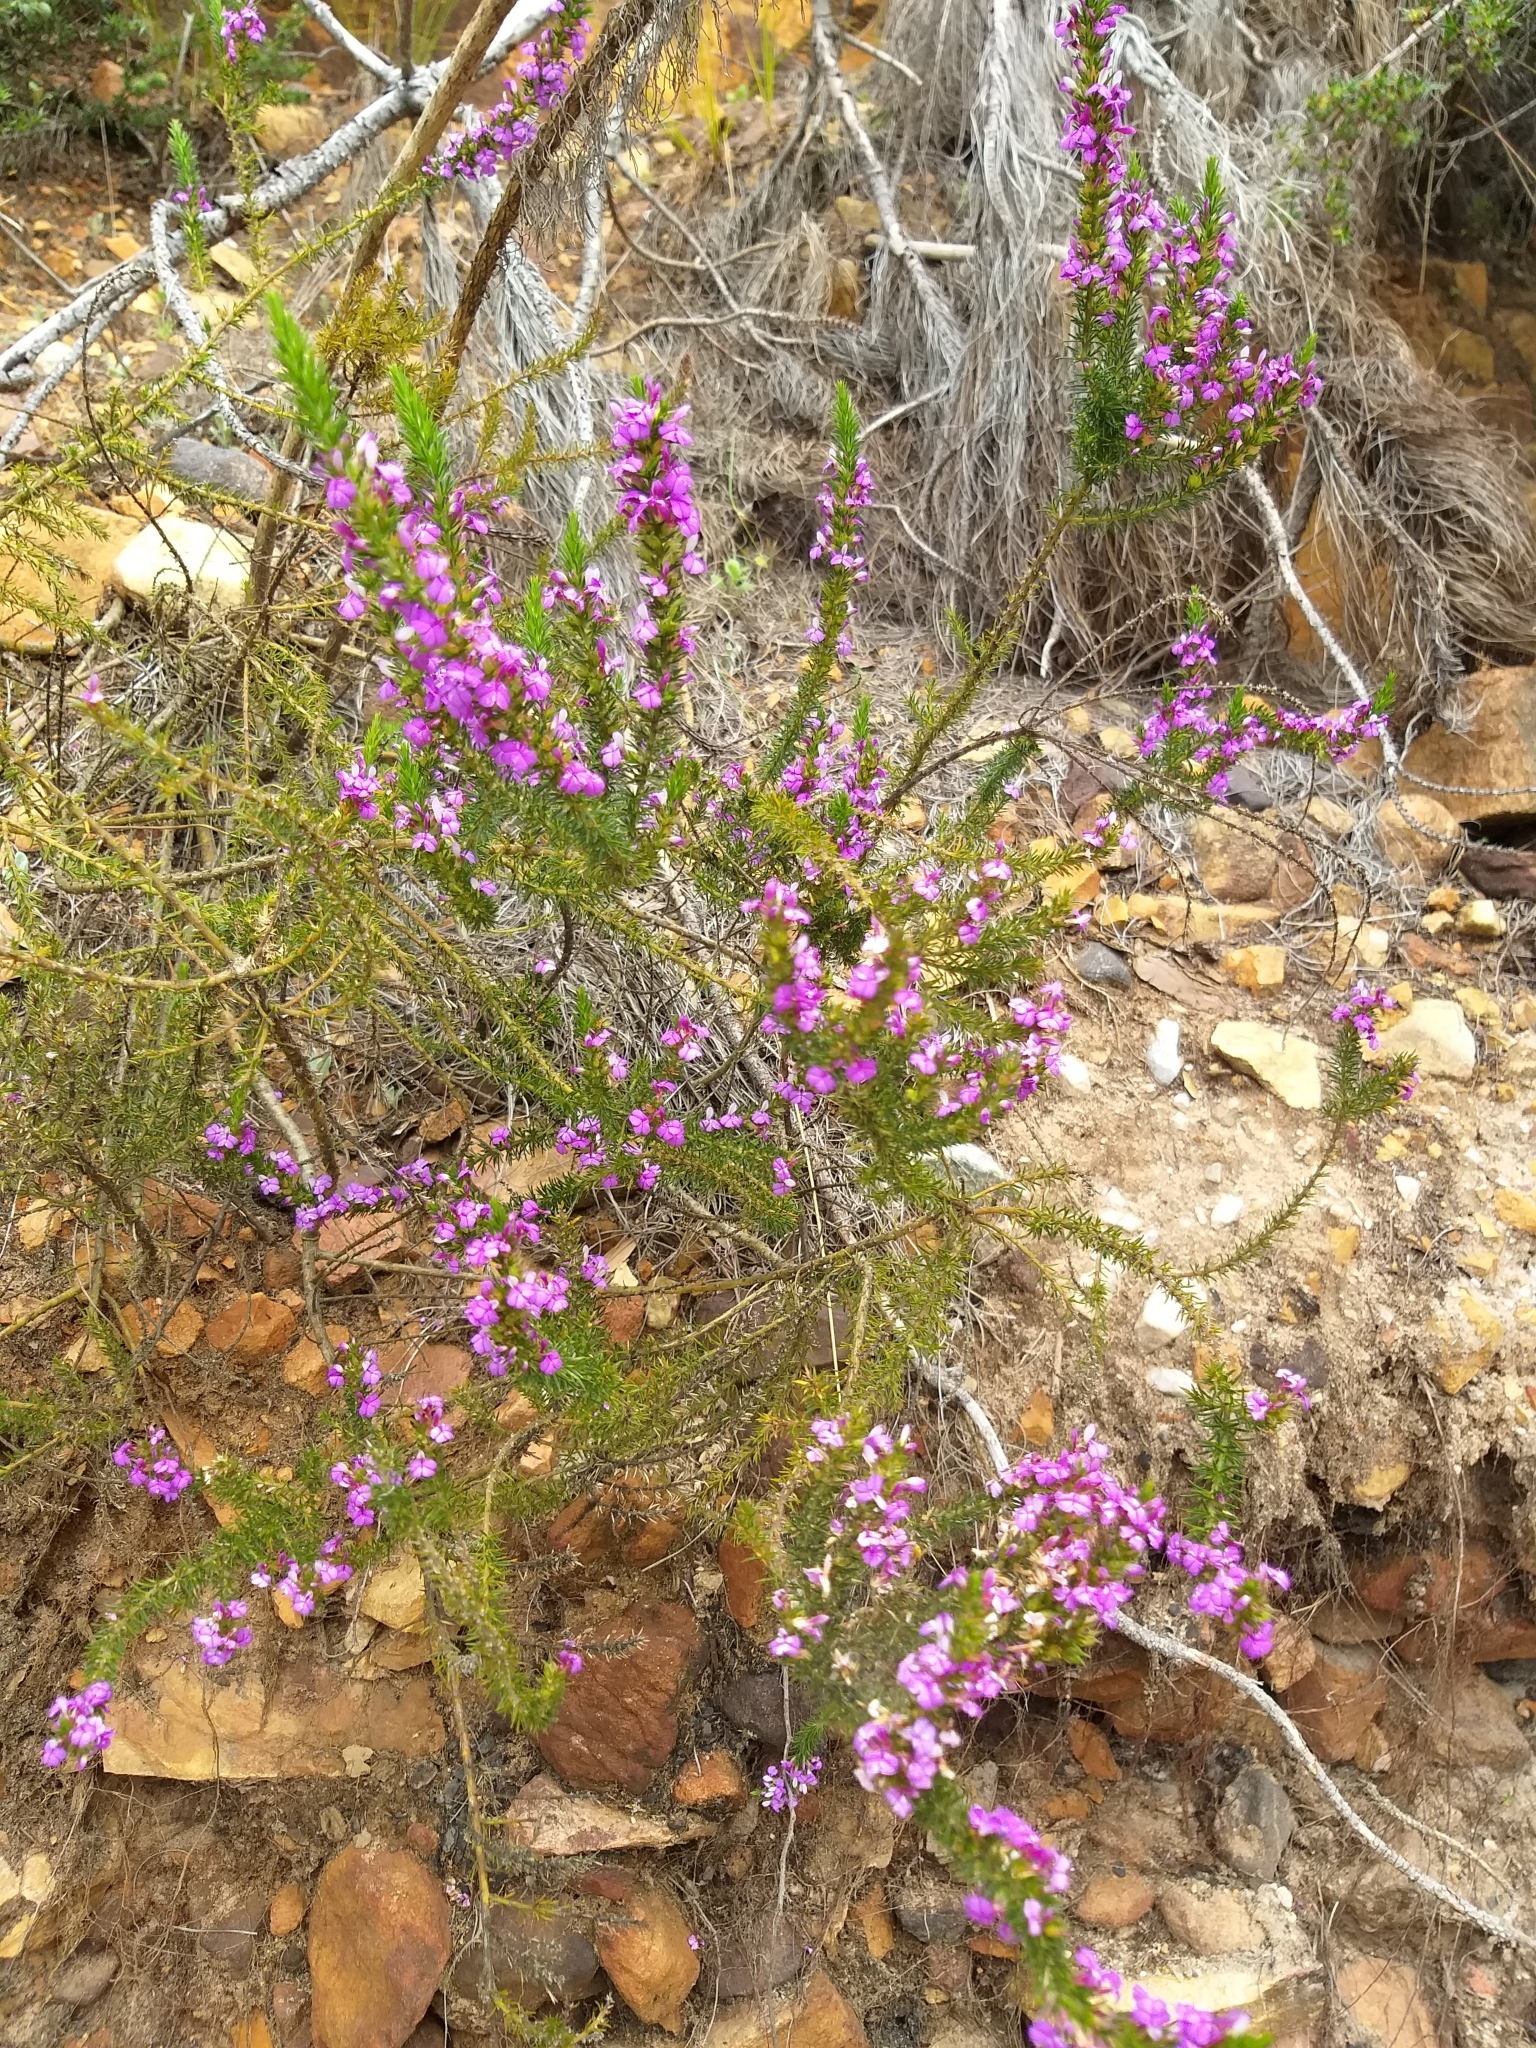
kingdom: Plantae
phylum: Tracheophyta
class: Magnoliopsida
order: Fabales
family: Polygalaceae
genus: Muraltia
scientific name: Muraltia heisteria
